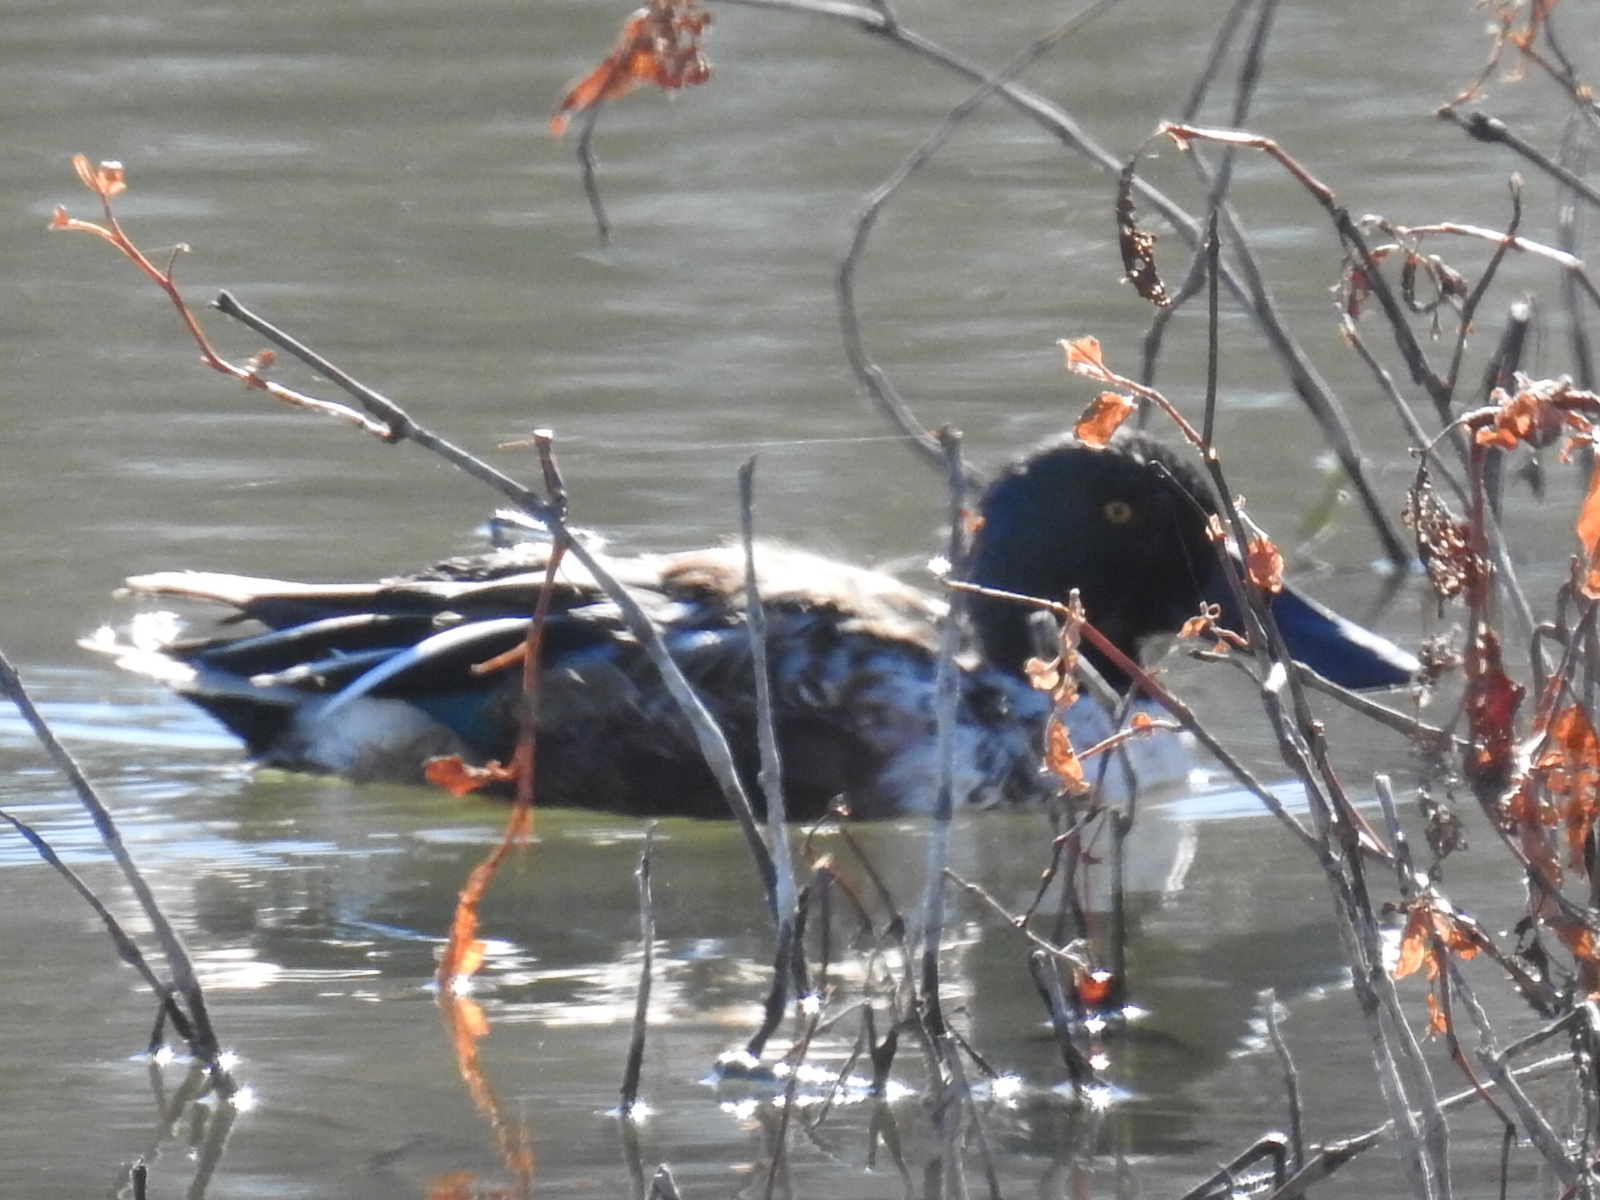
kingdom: Animalia
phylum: Chordata
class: Aves
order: Anseriformes
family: Anatidae
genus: Spatula
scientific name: Spatula clypeata
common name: Northern shoveler
